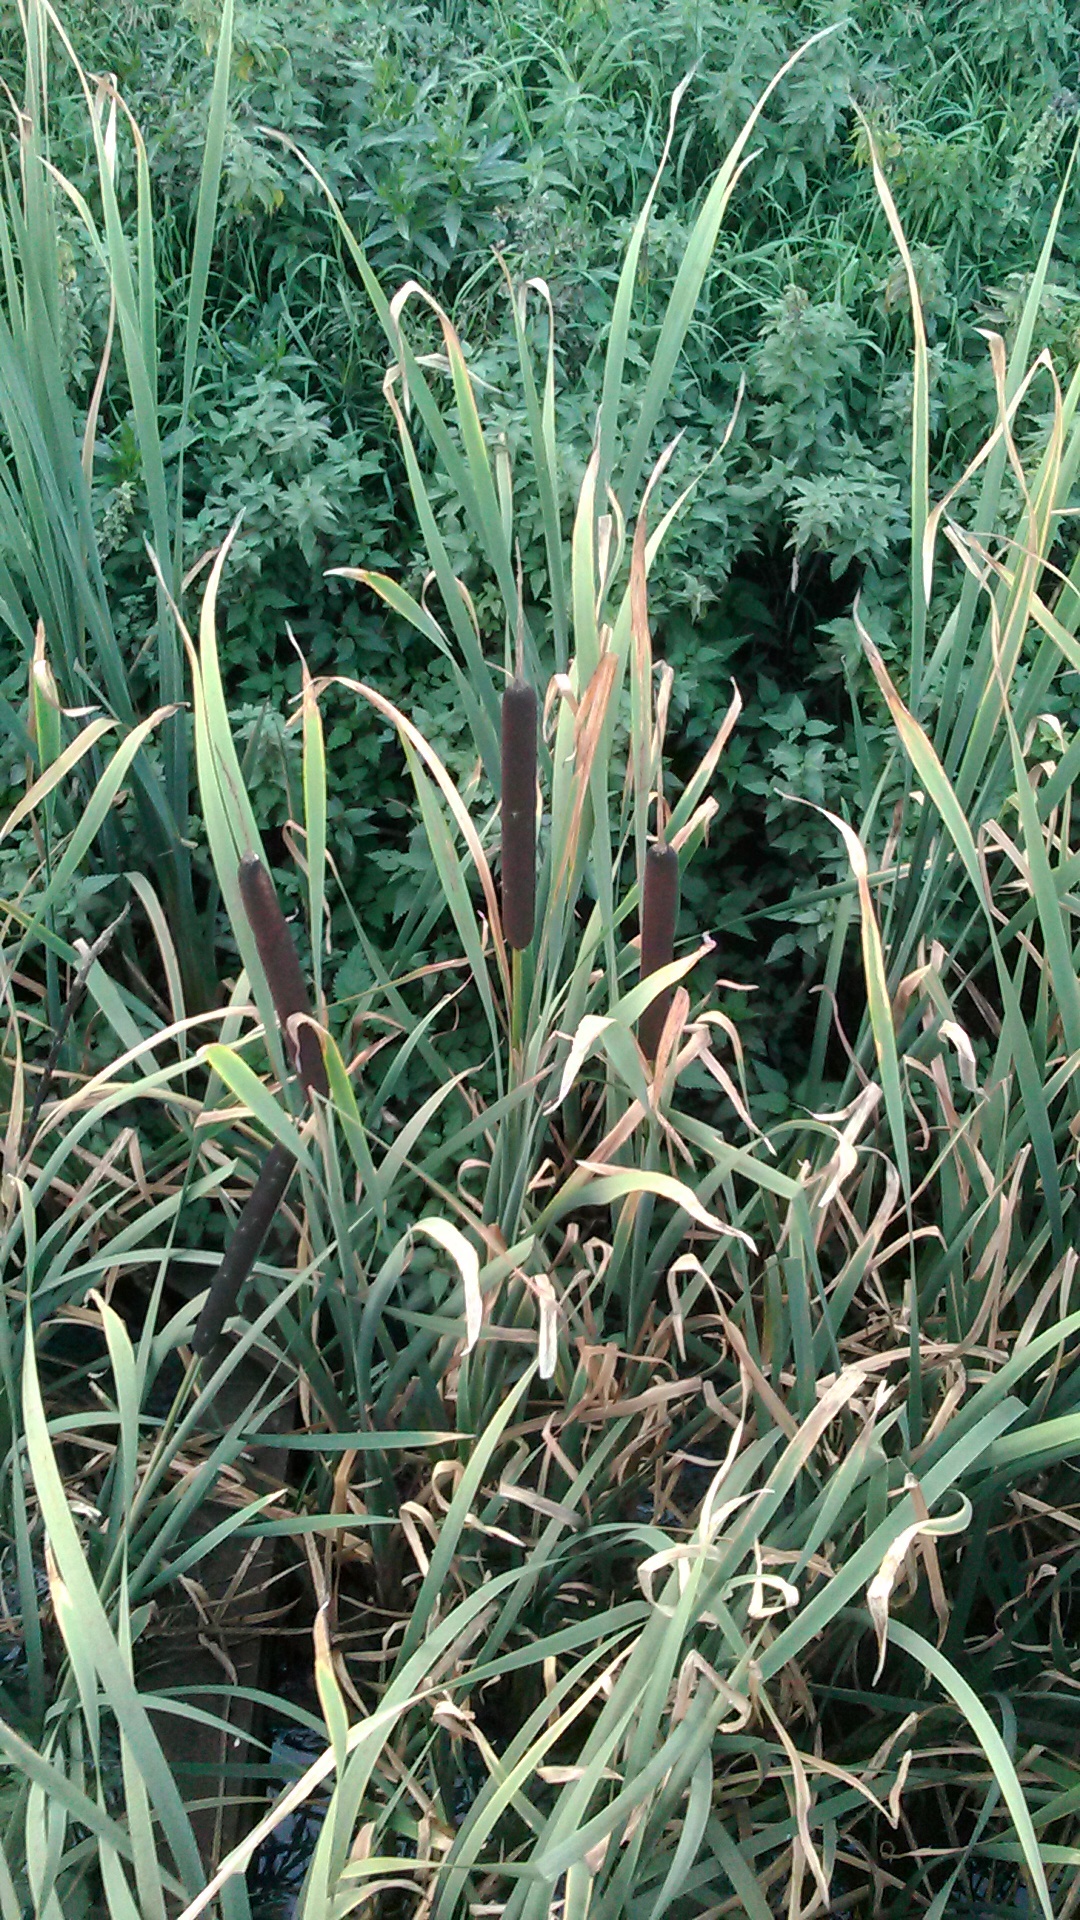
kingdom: Plantae
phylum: Tracheophyta
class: Liliopsida
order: Poales
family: Typhaceae
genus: Typha
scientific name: Typha latifolia
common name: Broadleaf cattail
